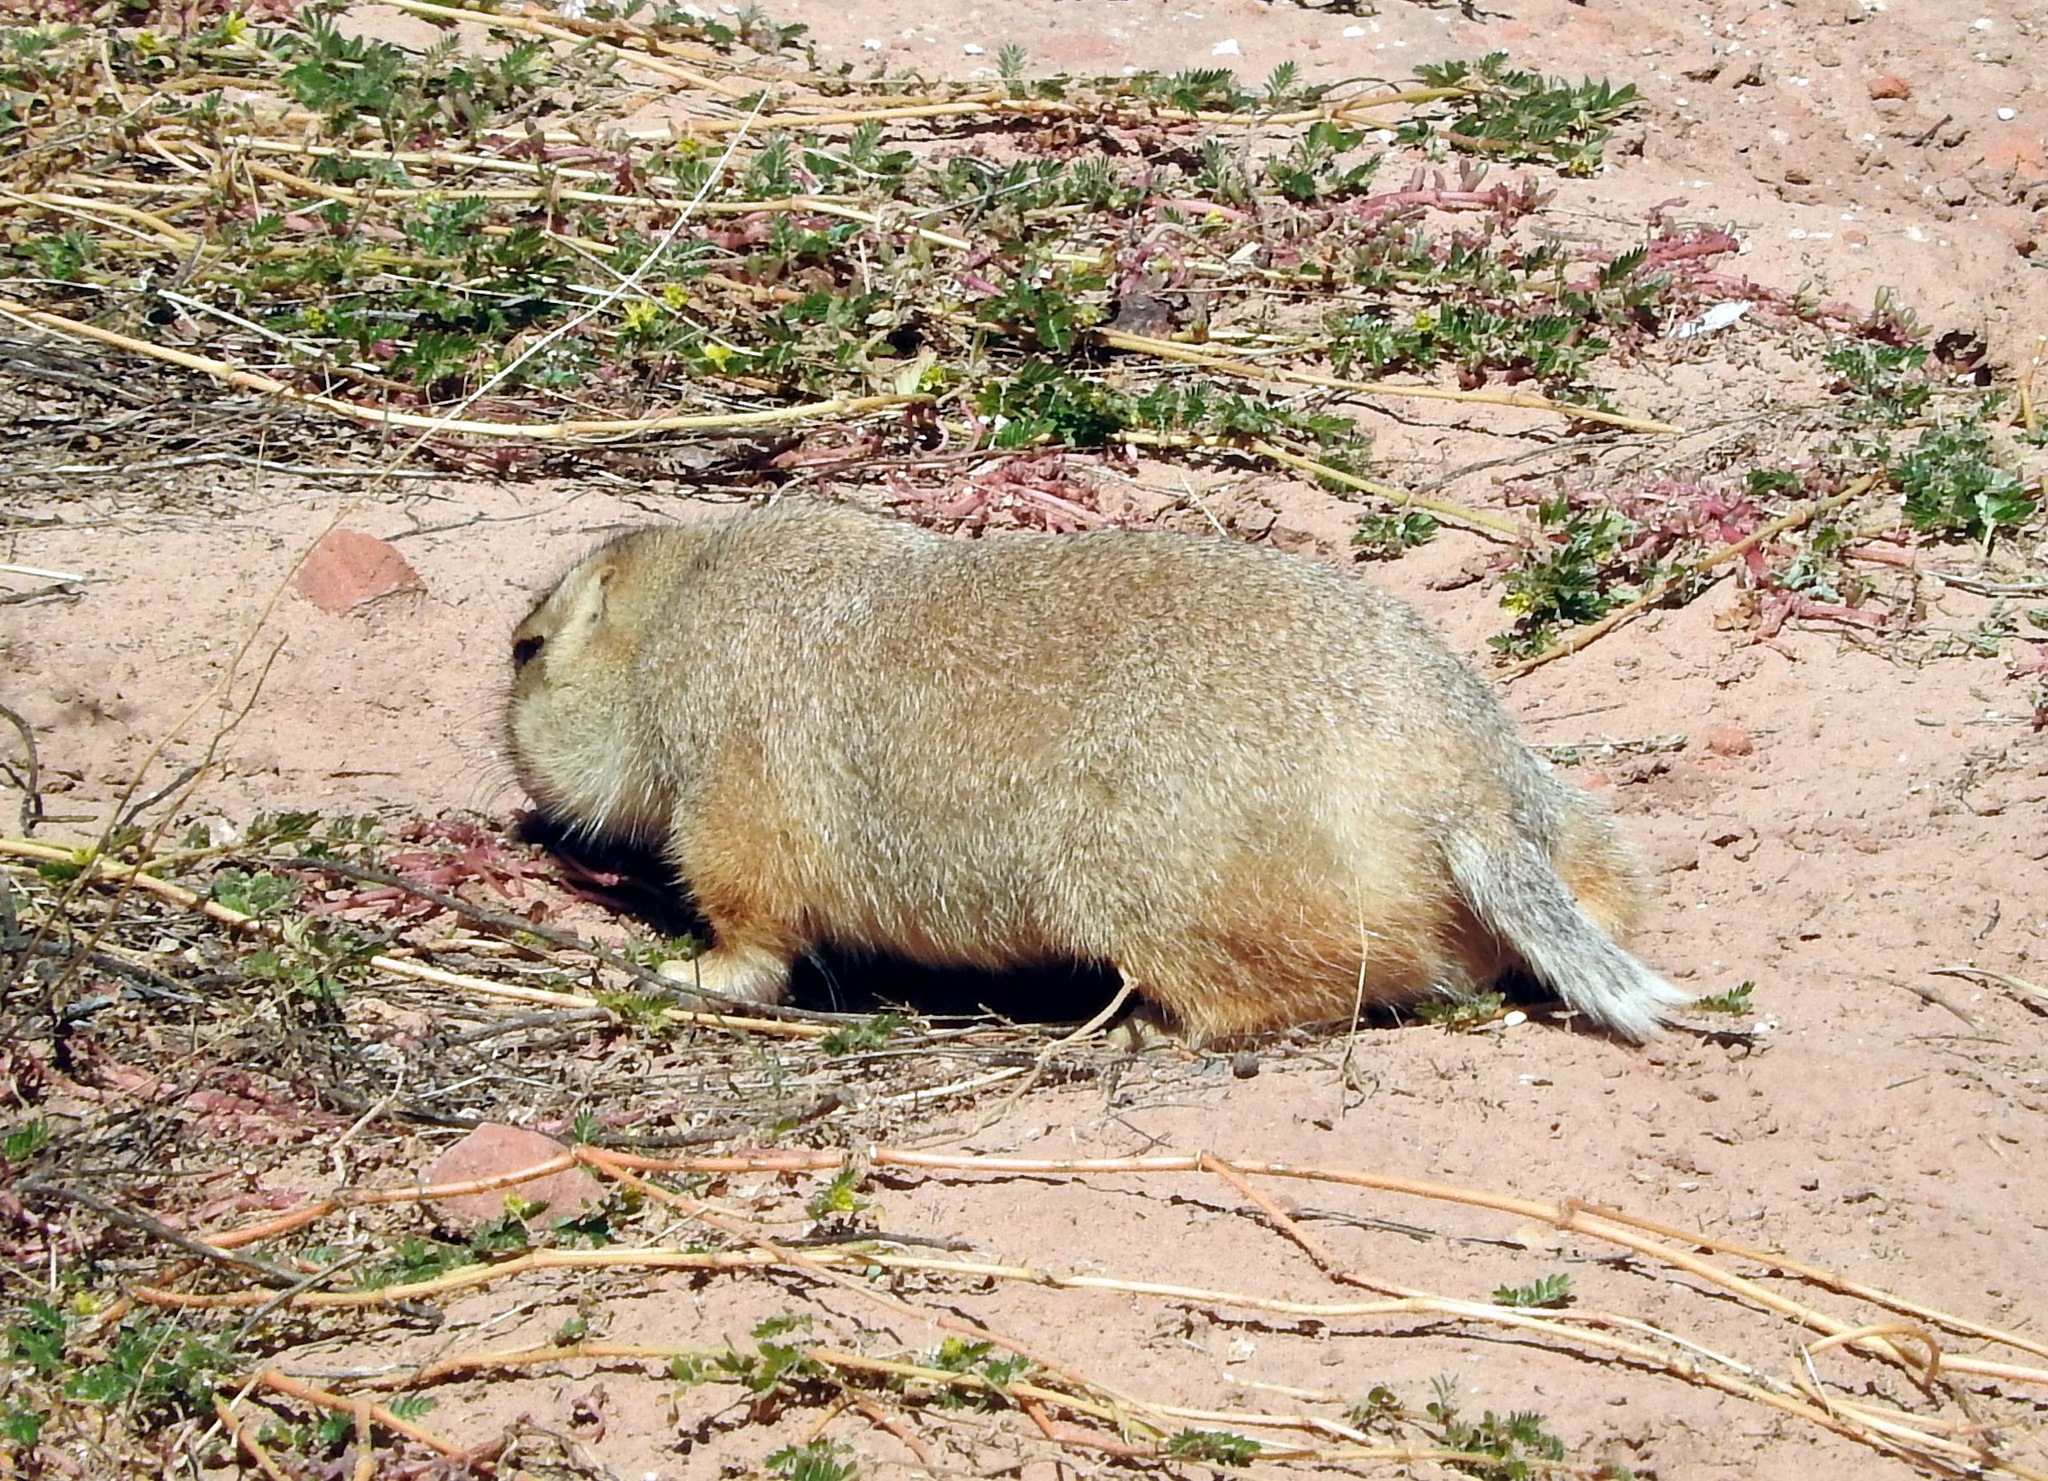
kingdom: Animalia
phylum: Chordata
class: Mammalia
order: Rodentia
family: Sciuridae
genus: Cynomys
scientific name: Cynomys gunnisoni
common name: Gunnison's prairie dog
